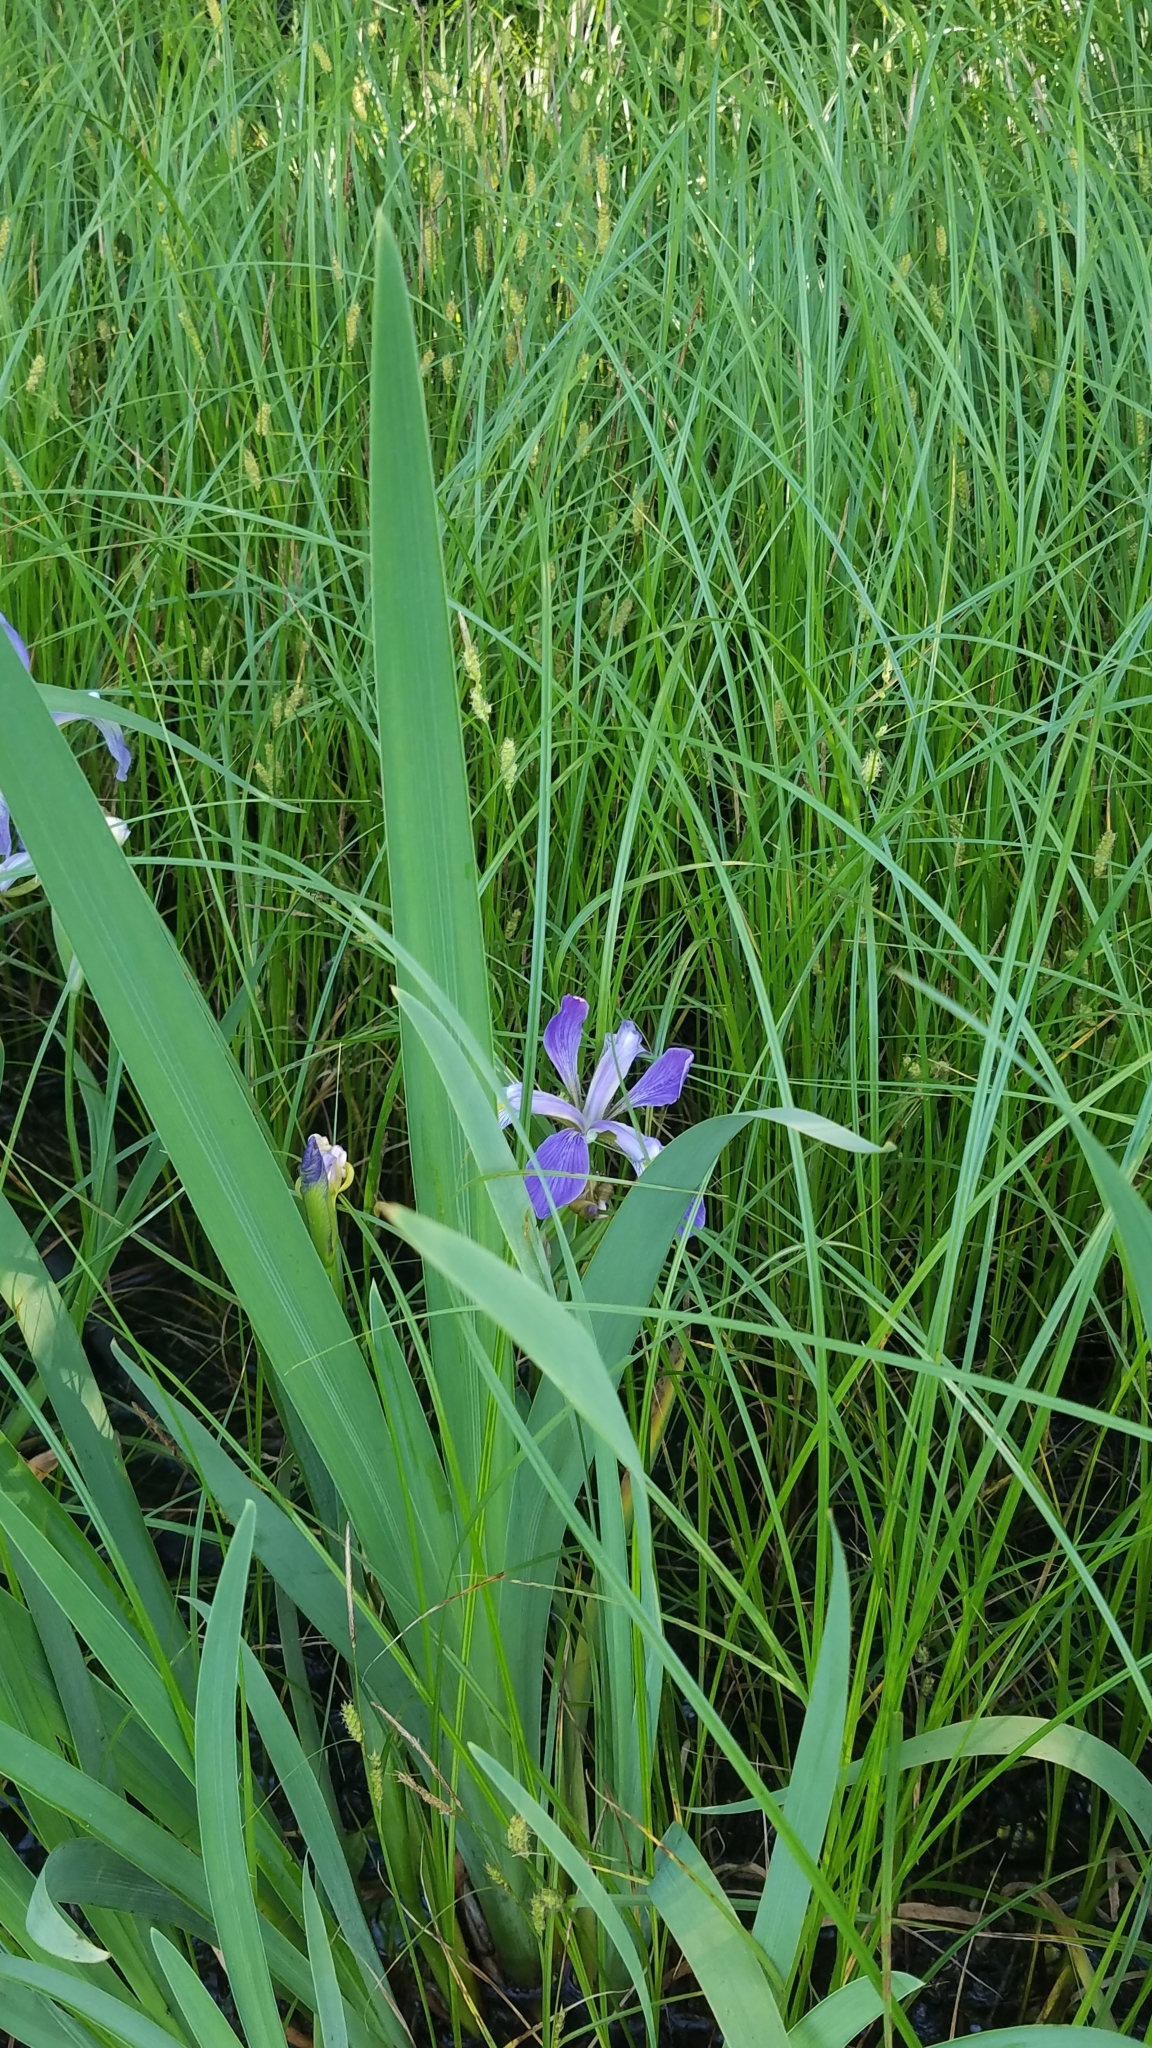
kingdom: Plantae
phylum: Tracheophyta
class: Liliopsida
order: Asparagales
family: Iridaceae
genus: Iris
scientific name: Iris virginica
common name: Southern blue flag
